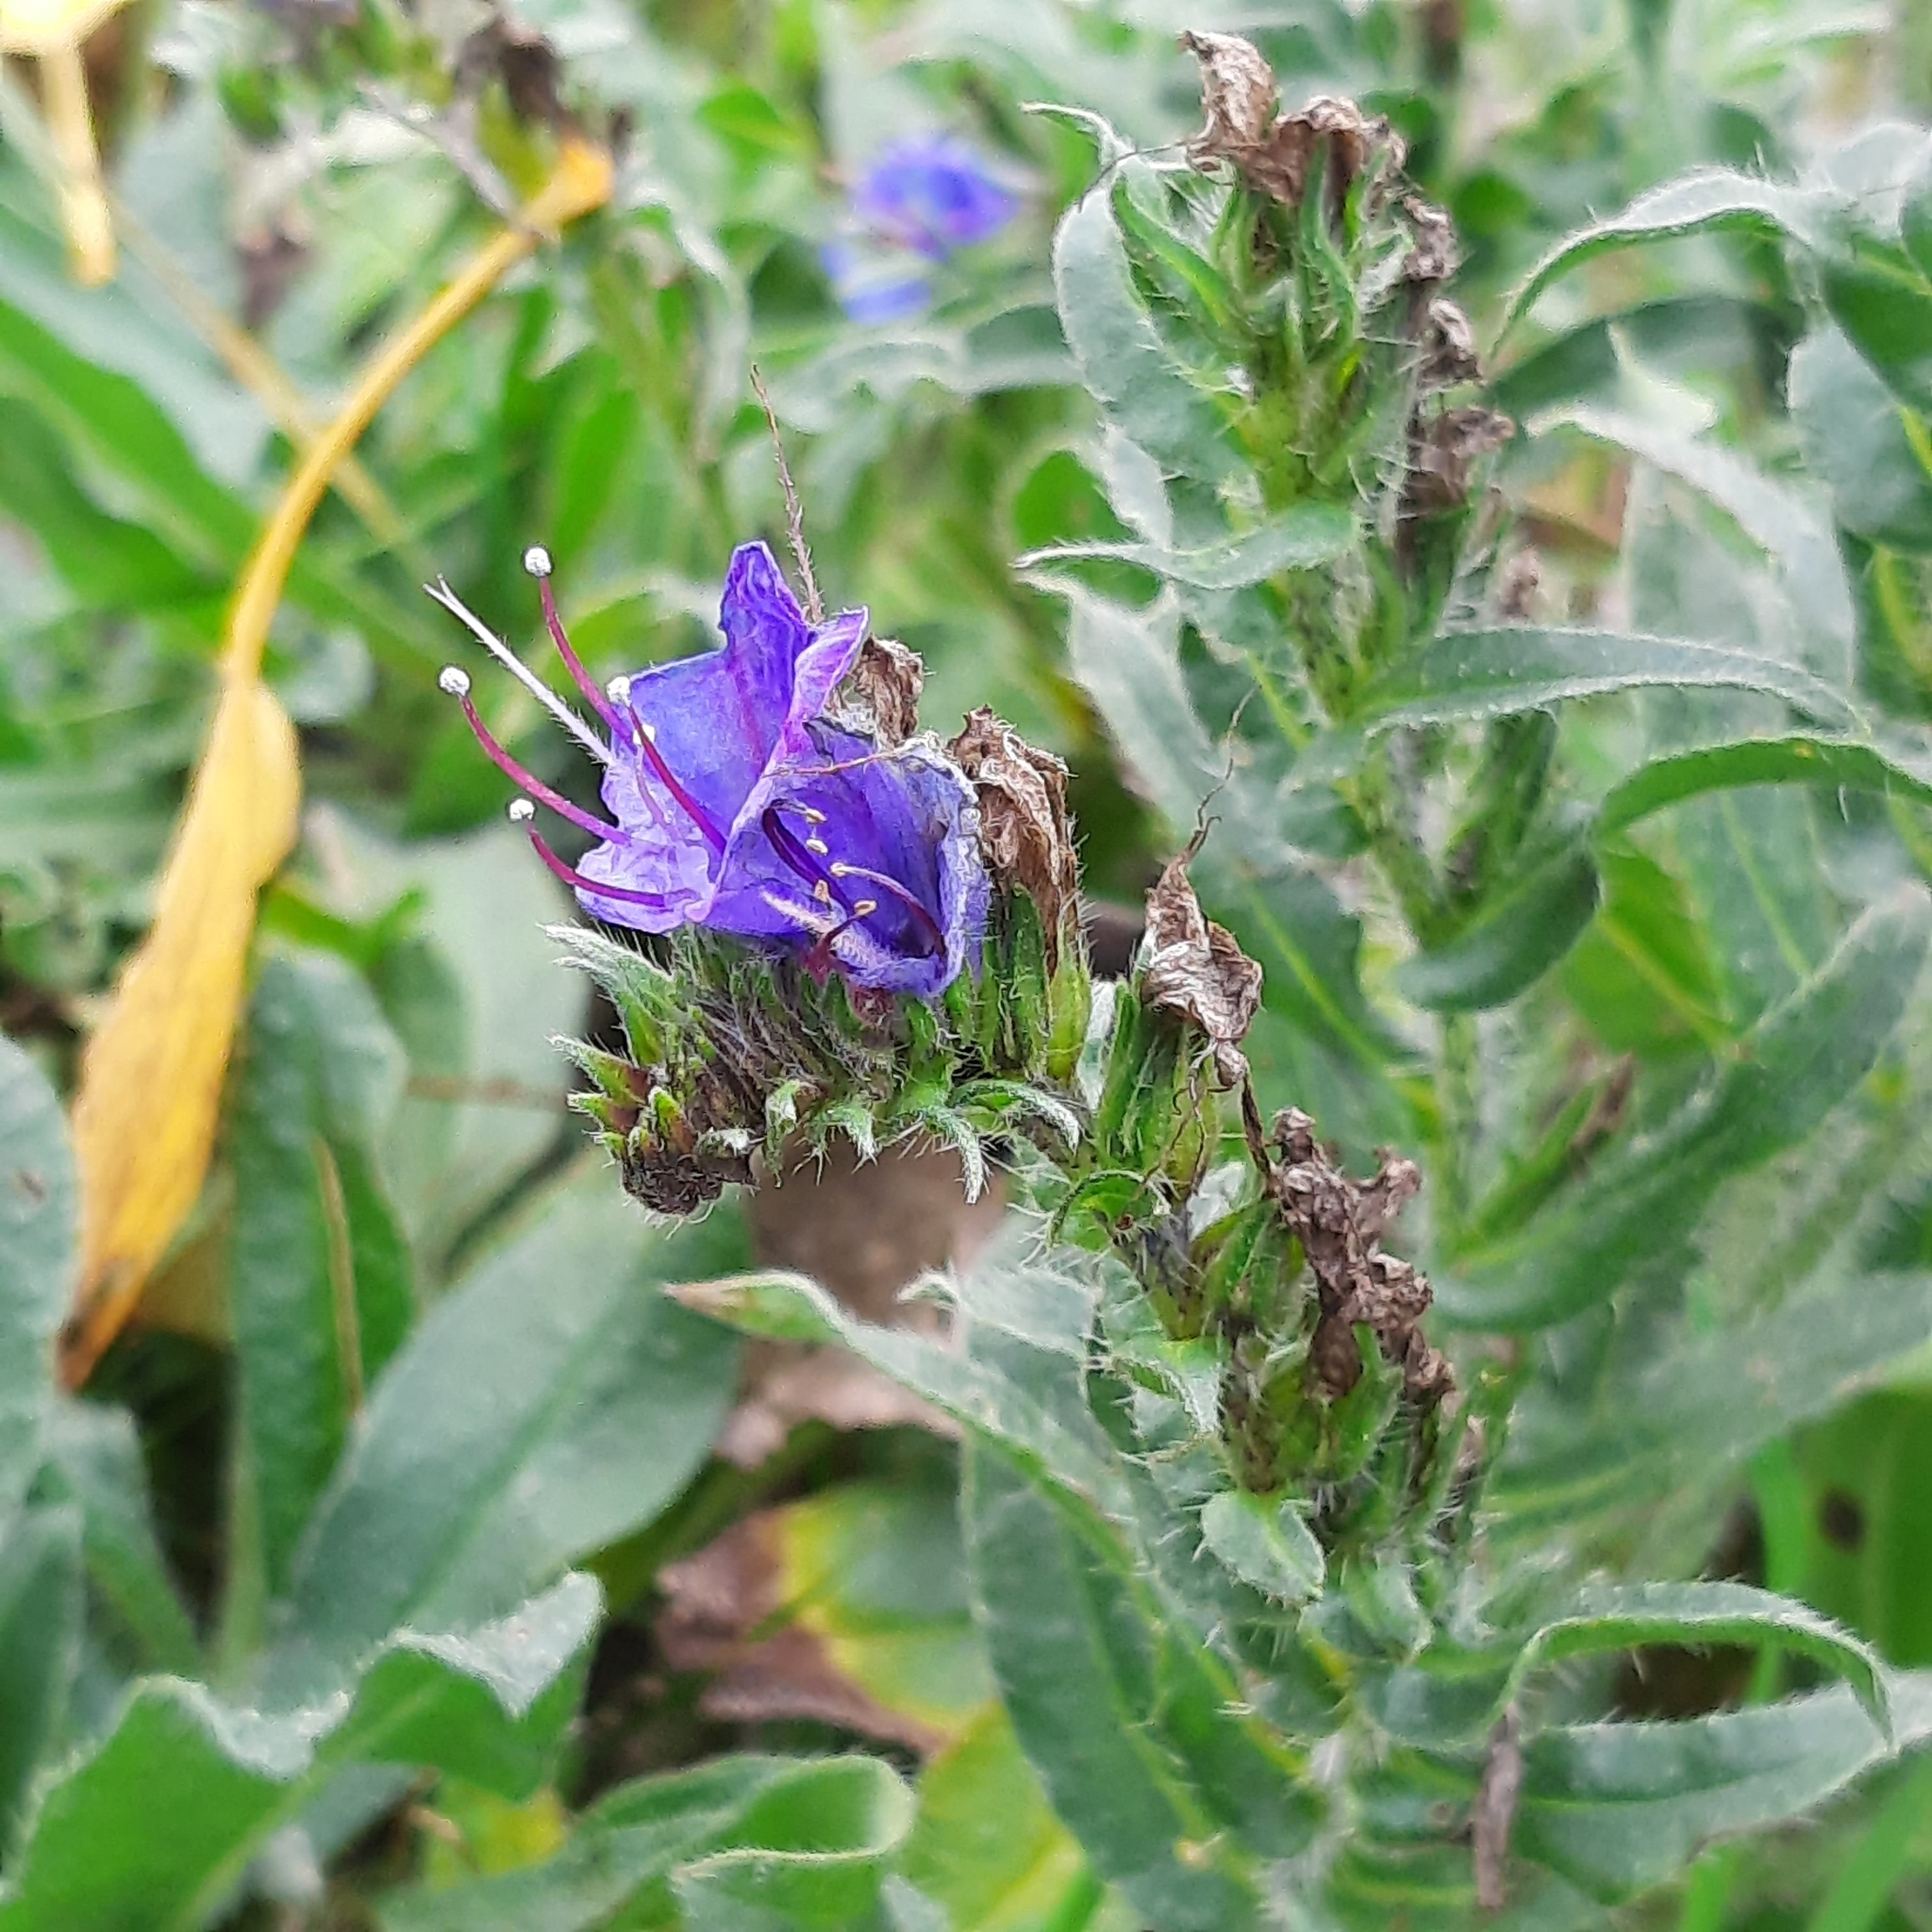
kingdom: Plantae
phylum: Tracheophyta
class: Magnoliopsida
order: Boraginales
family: Boraginaceae
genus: Echium
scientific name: Echium vulgare
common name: Common viper's bugloss
